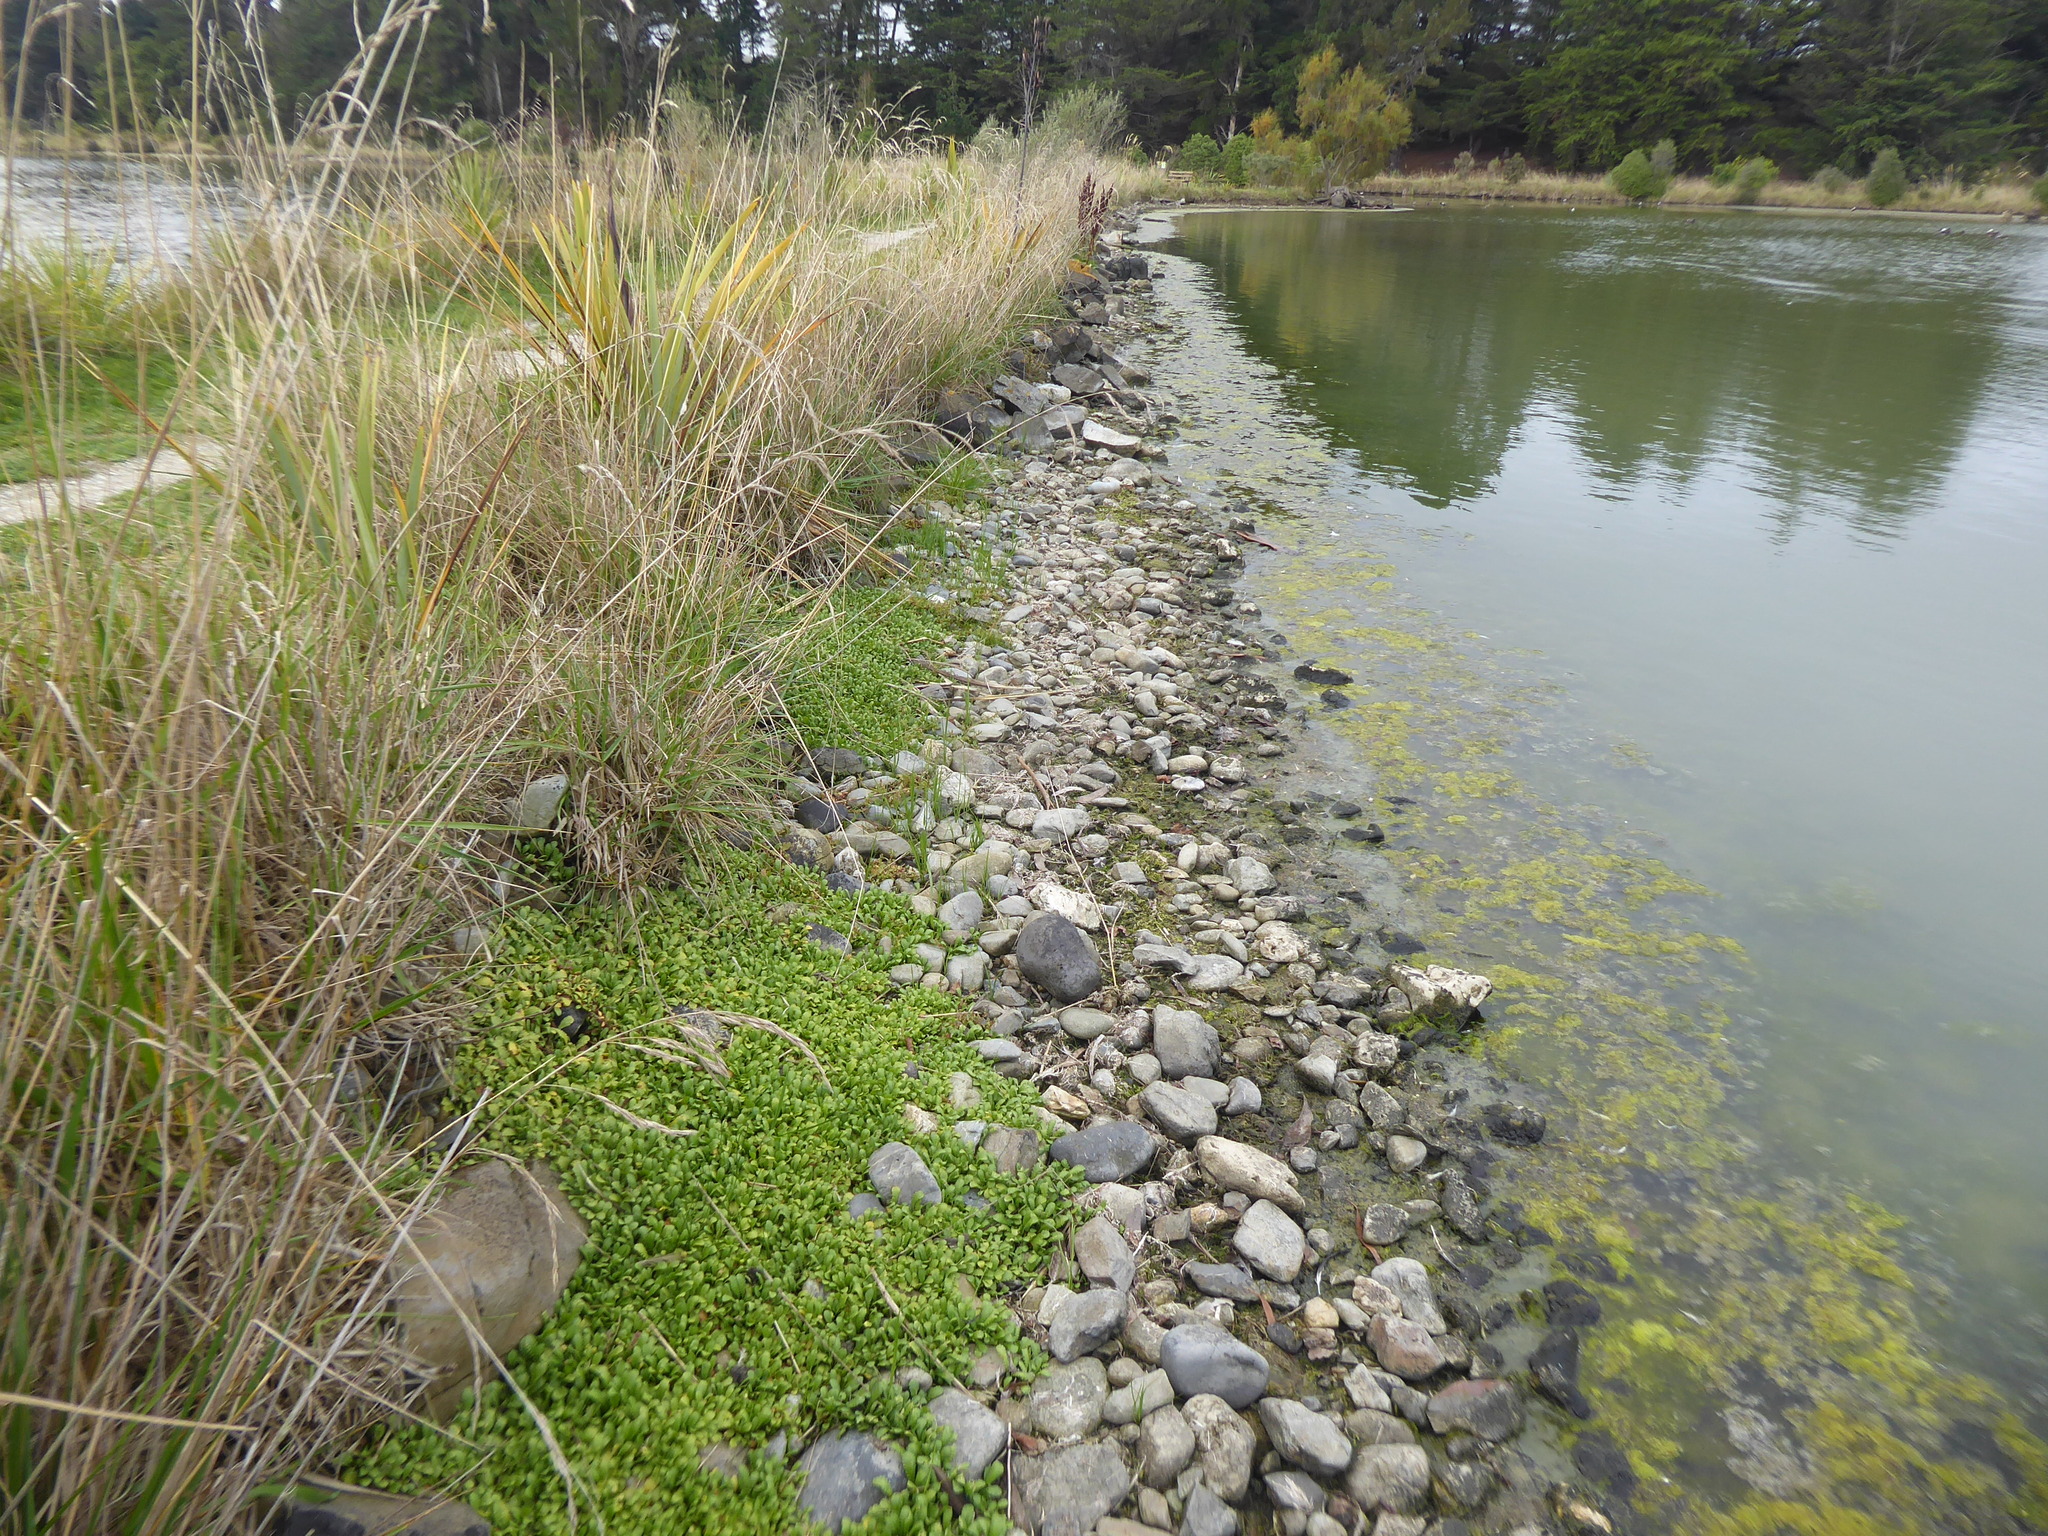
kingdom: Plantae
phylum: Tracheophyta
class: Magnoliopsida
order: Asterales
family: Asteraceae
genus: Leptinella
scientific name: Leptinella dioica
